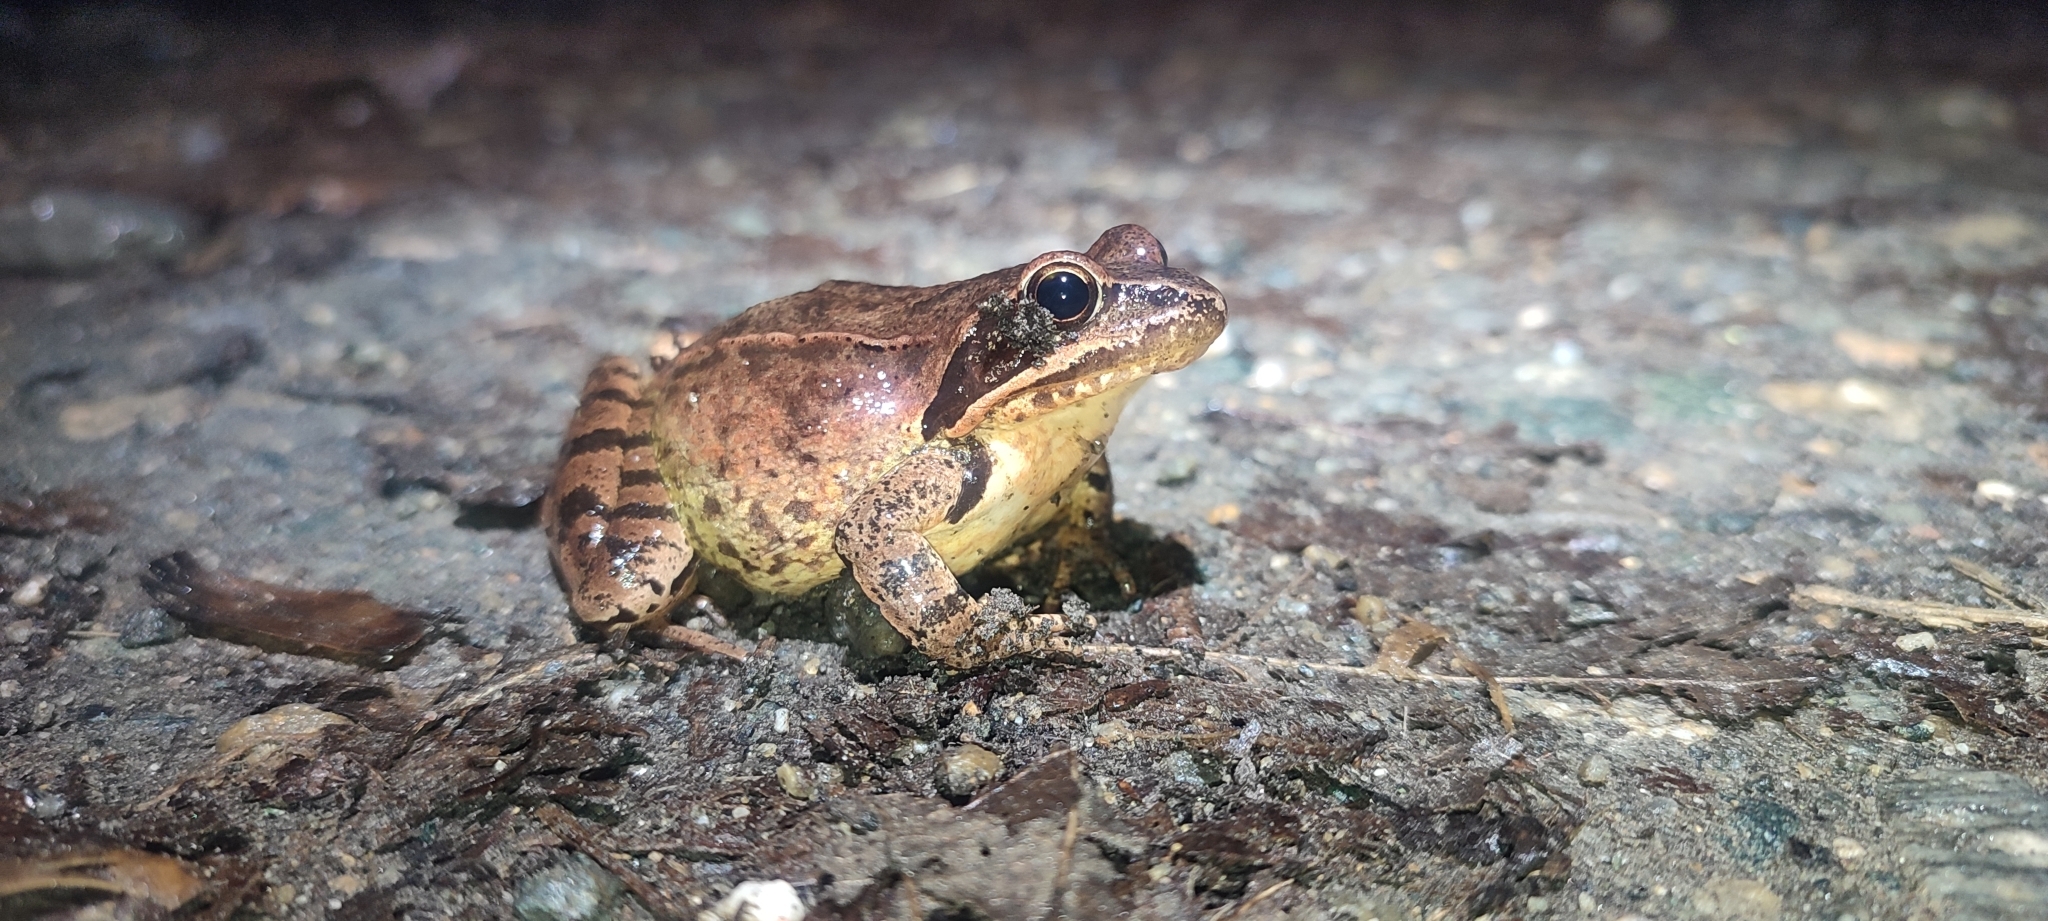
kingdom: Animalia
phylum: Chordata
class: Amphibia
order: Anura
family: Ranidae
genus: Rana
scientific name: Rana dalmatina
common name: Agile frog
